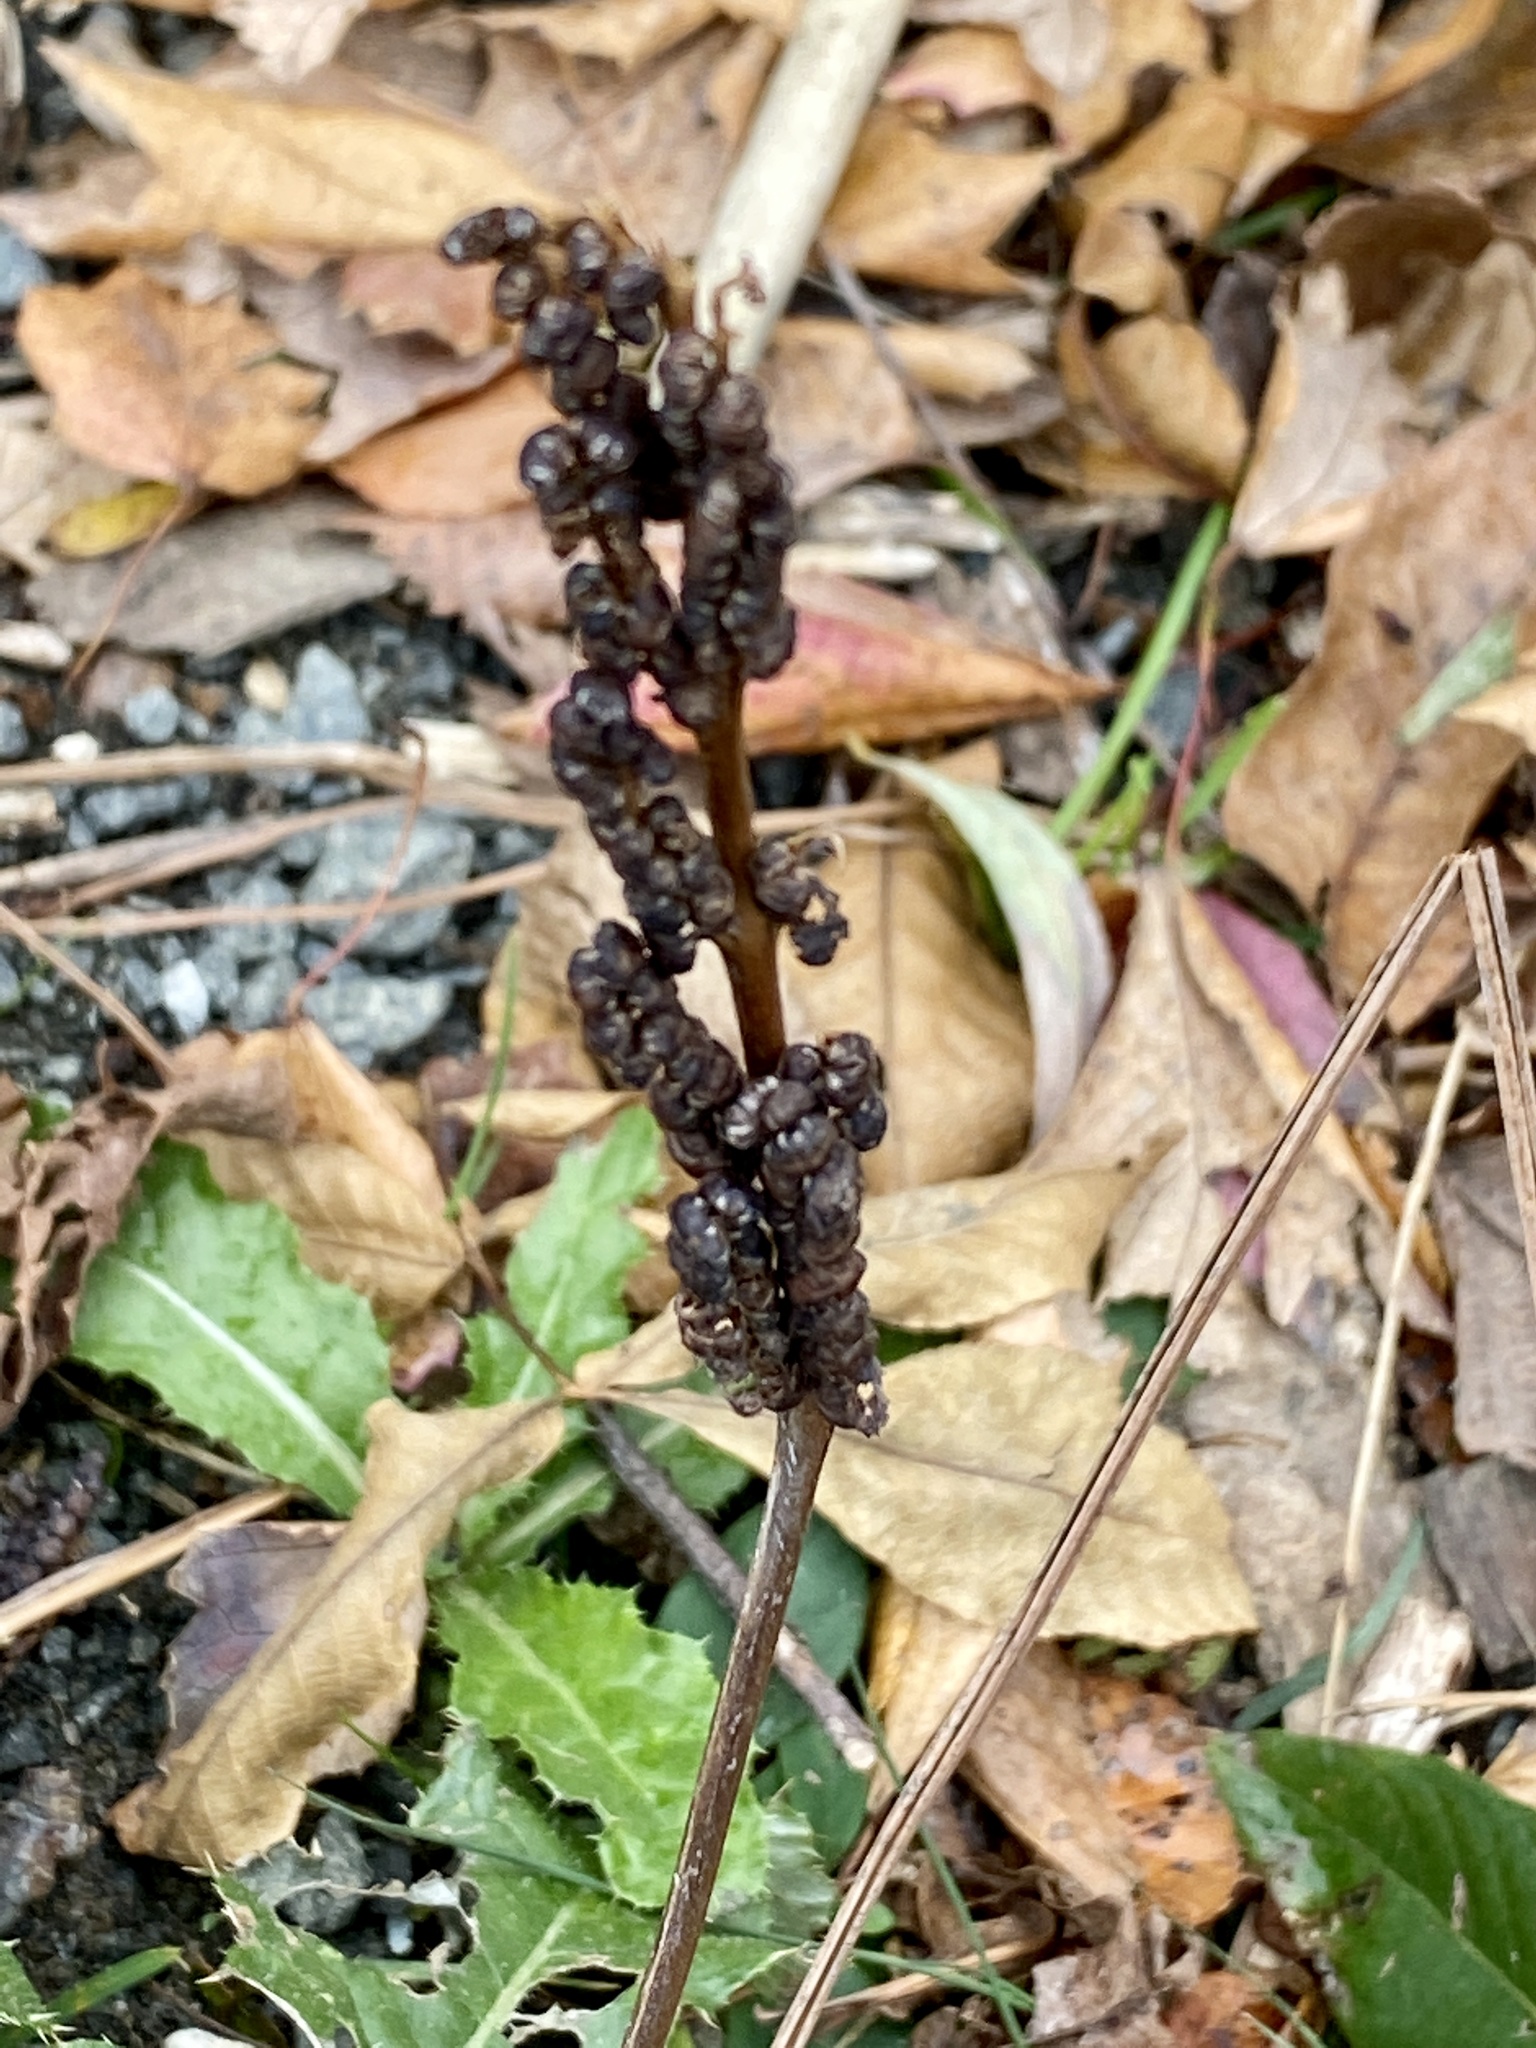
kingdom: Plantae
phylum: Tracheophyta
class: Polypodiopsida
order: Polypodiales
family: Onocleaceae
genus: Onoclea
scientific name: Onoclea sensibilis
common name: Sensitive fern
